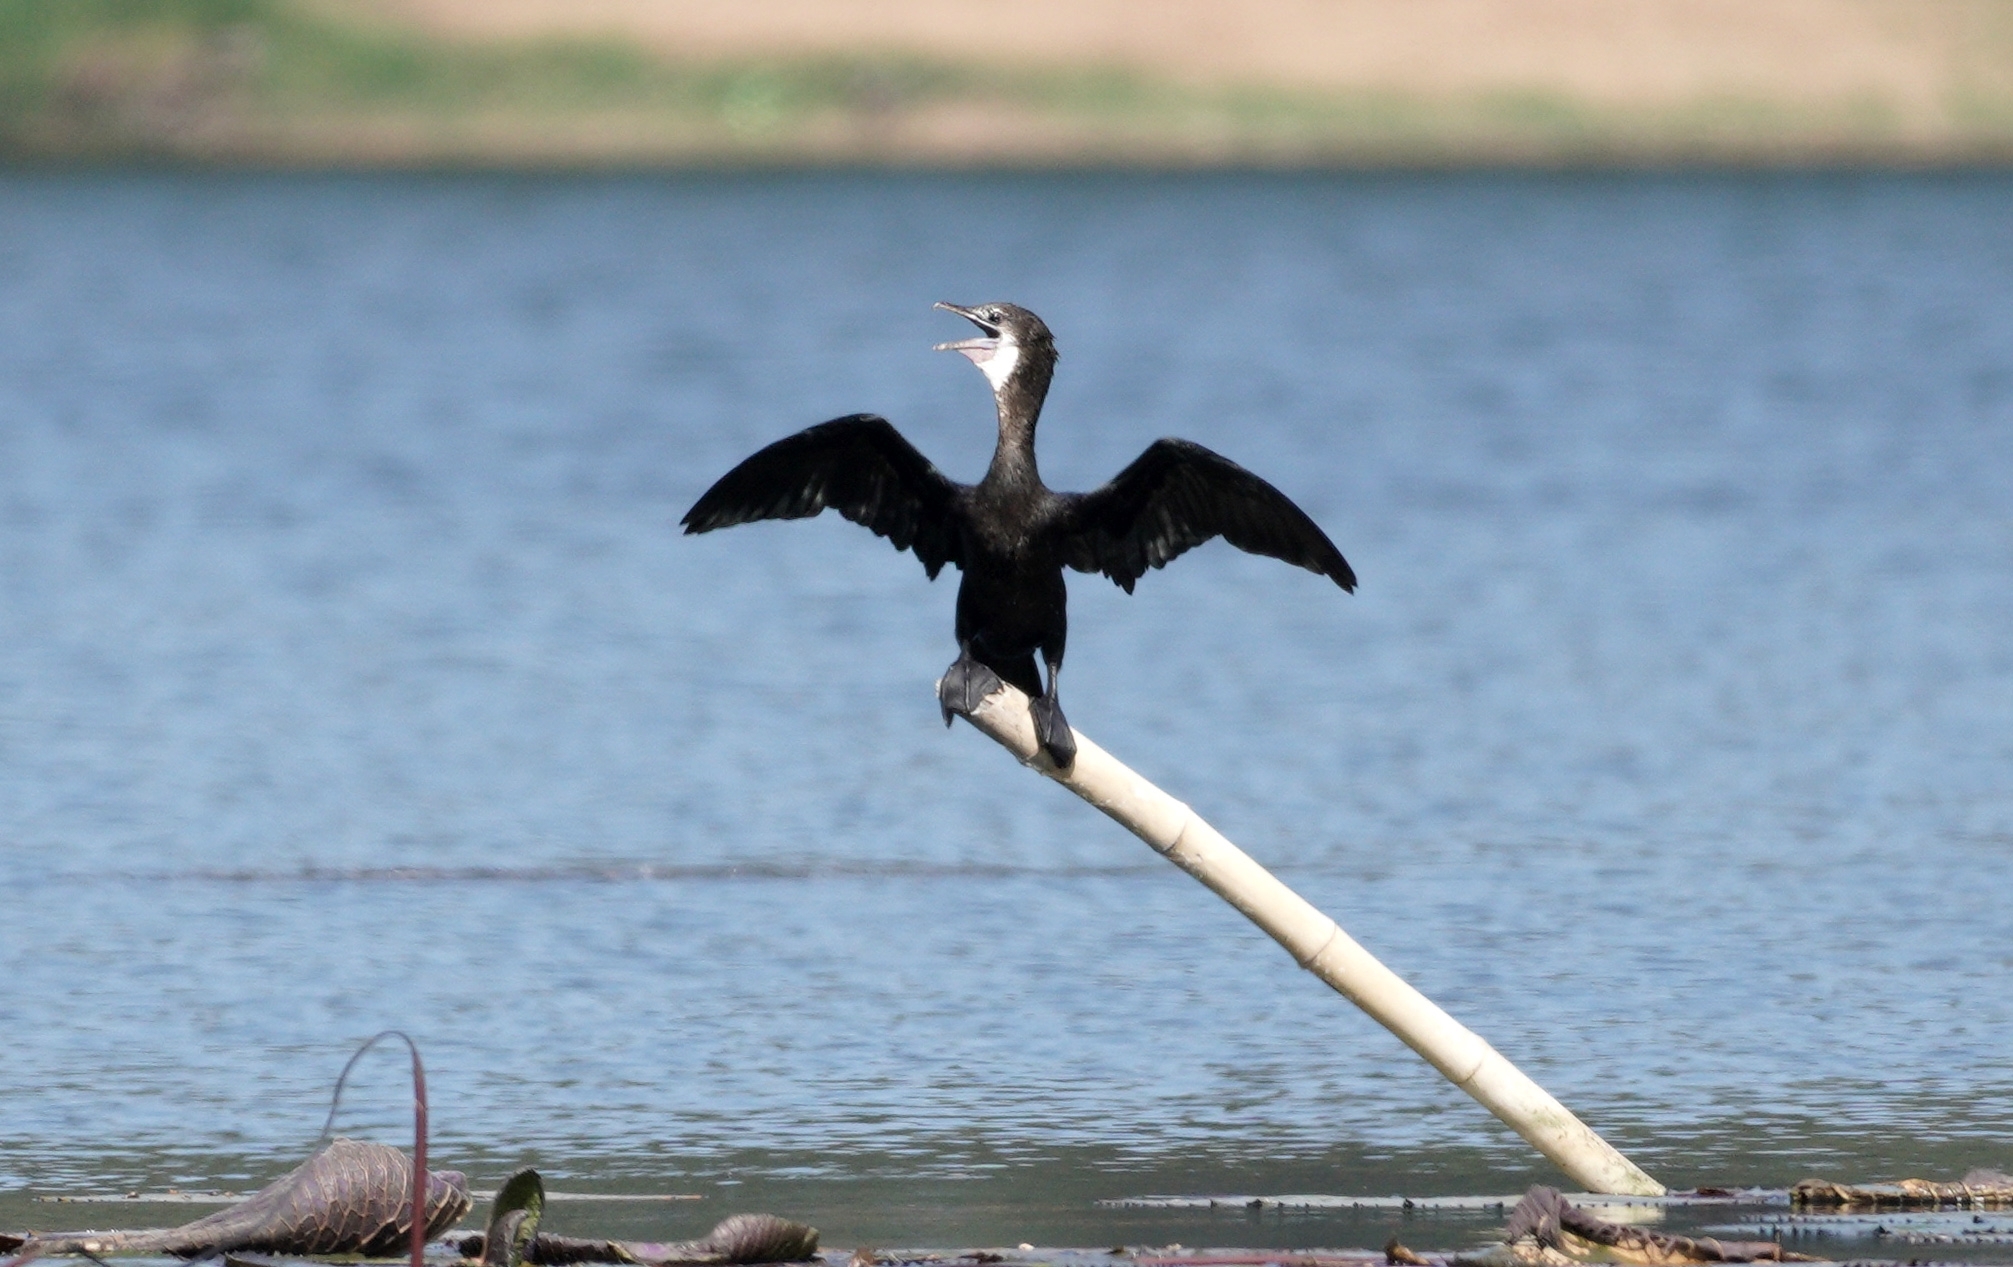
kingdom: Animalia
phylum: Chordata
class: Aves
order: Suliformes
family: Phalacrocoracidae
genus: Microcarbo
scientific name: Microcarbo niger
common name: Little cormorant
